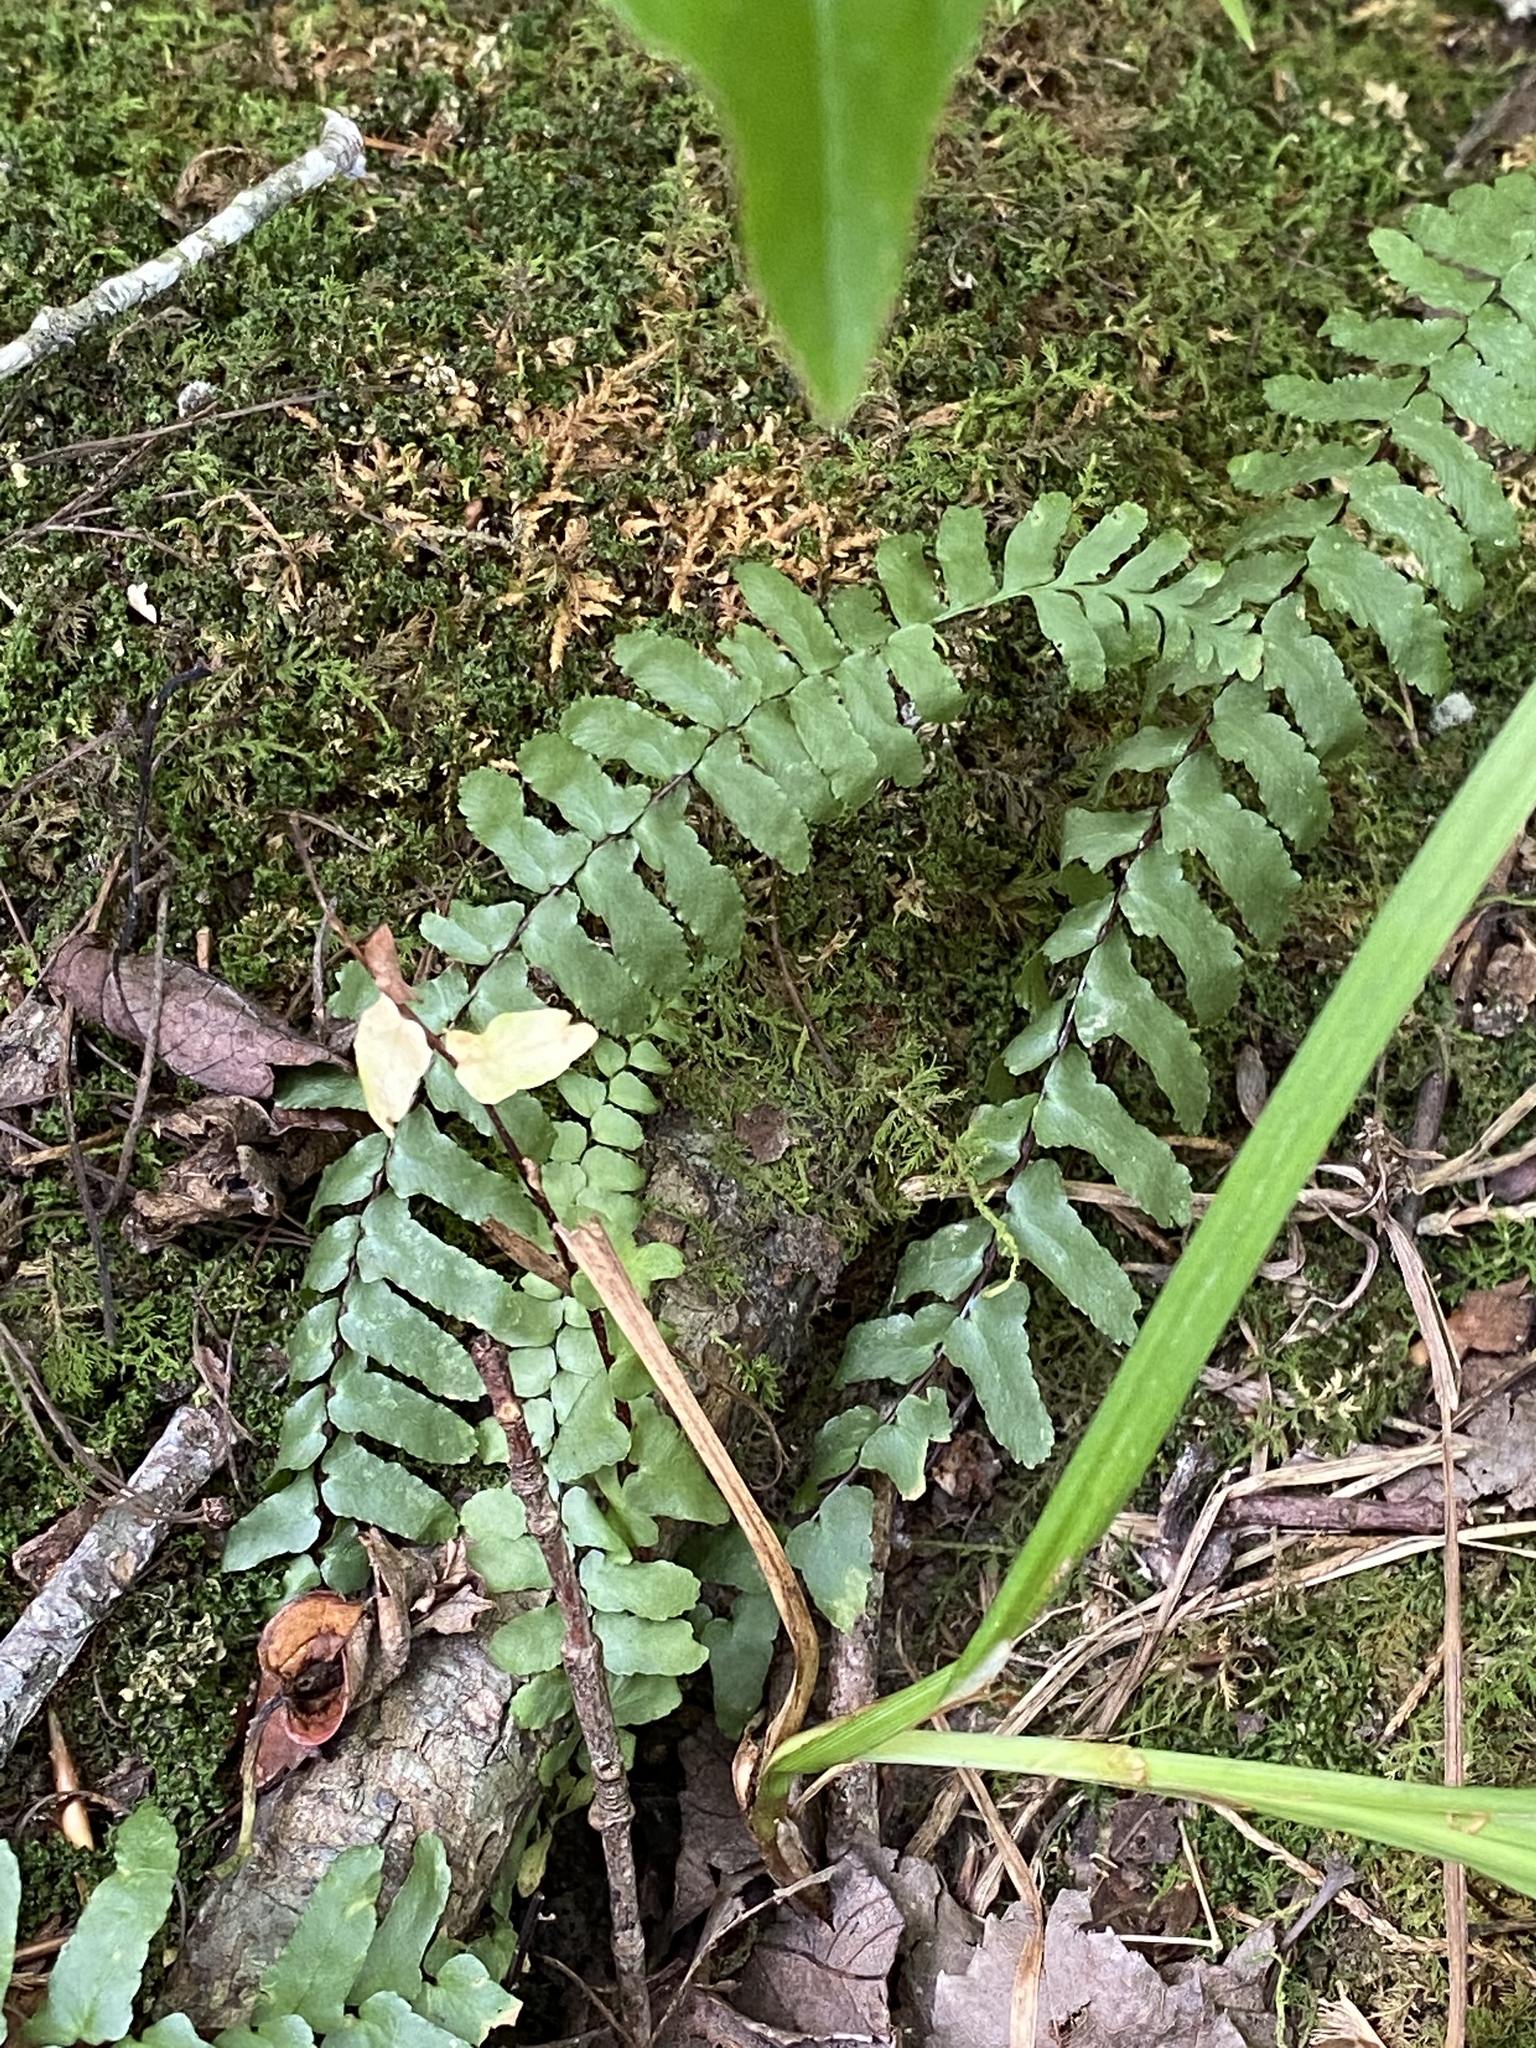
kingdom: Plantae
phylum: Tracheophyta
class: Polypodiopsida
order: Polypodiales
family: Aspleniaceae
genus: Asplenium
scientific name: Asplenium platyneuron
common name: Ebony spleenwort
